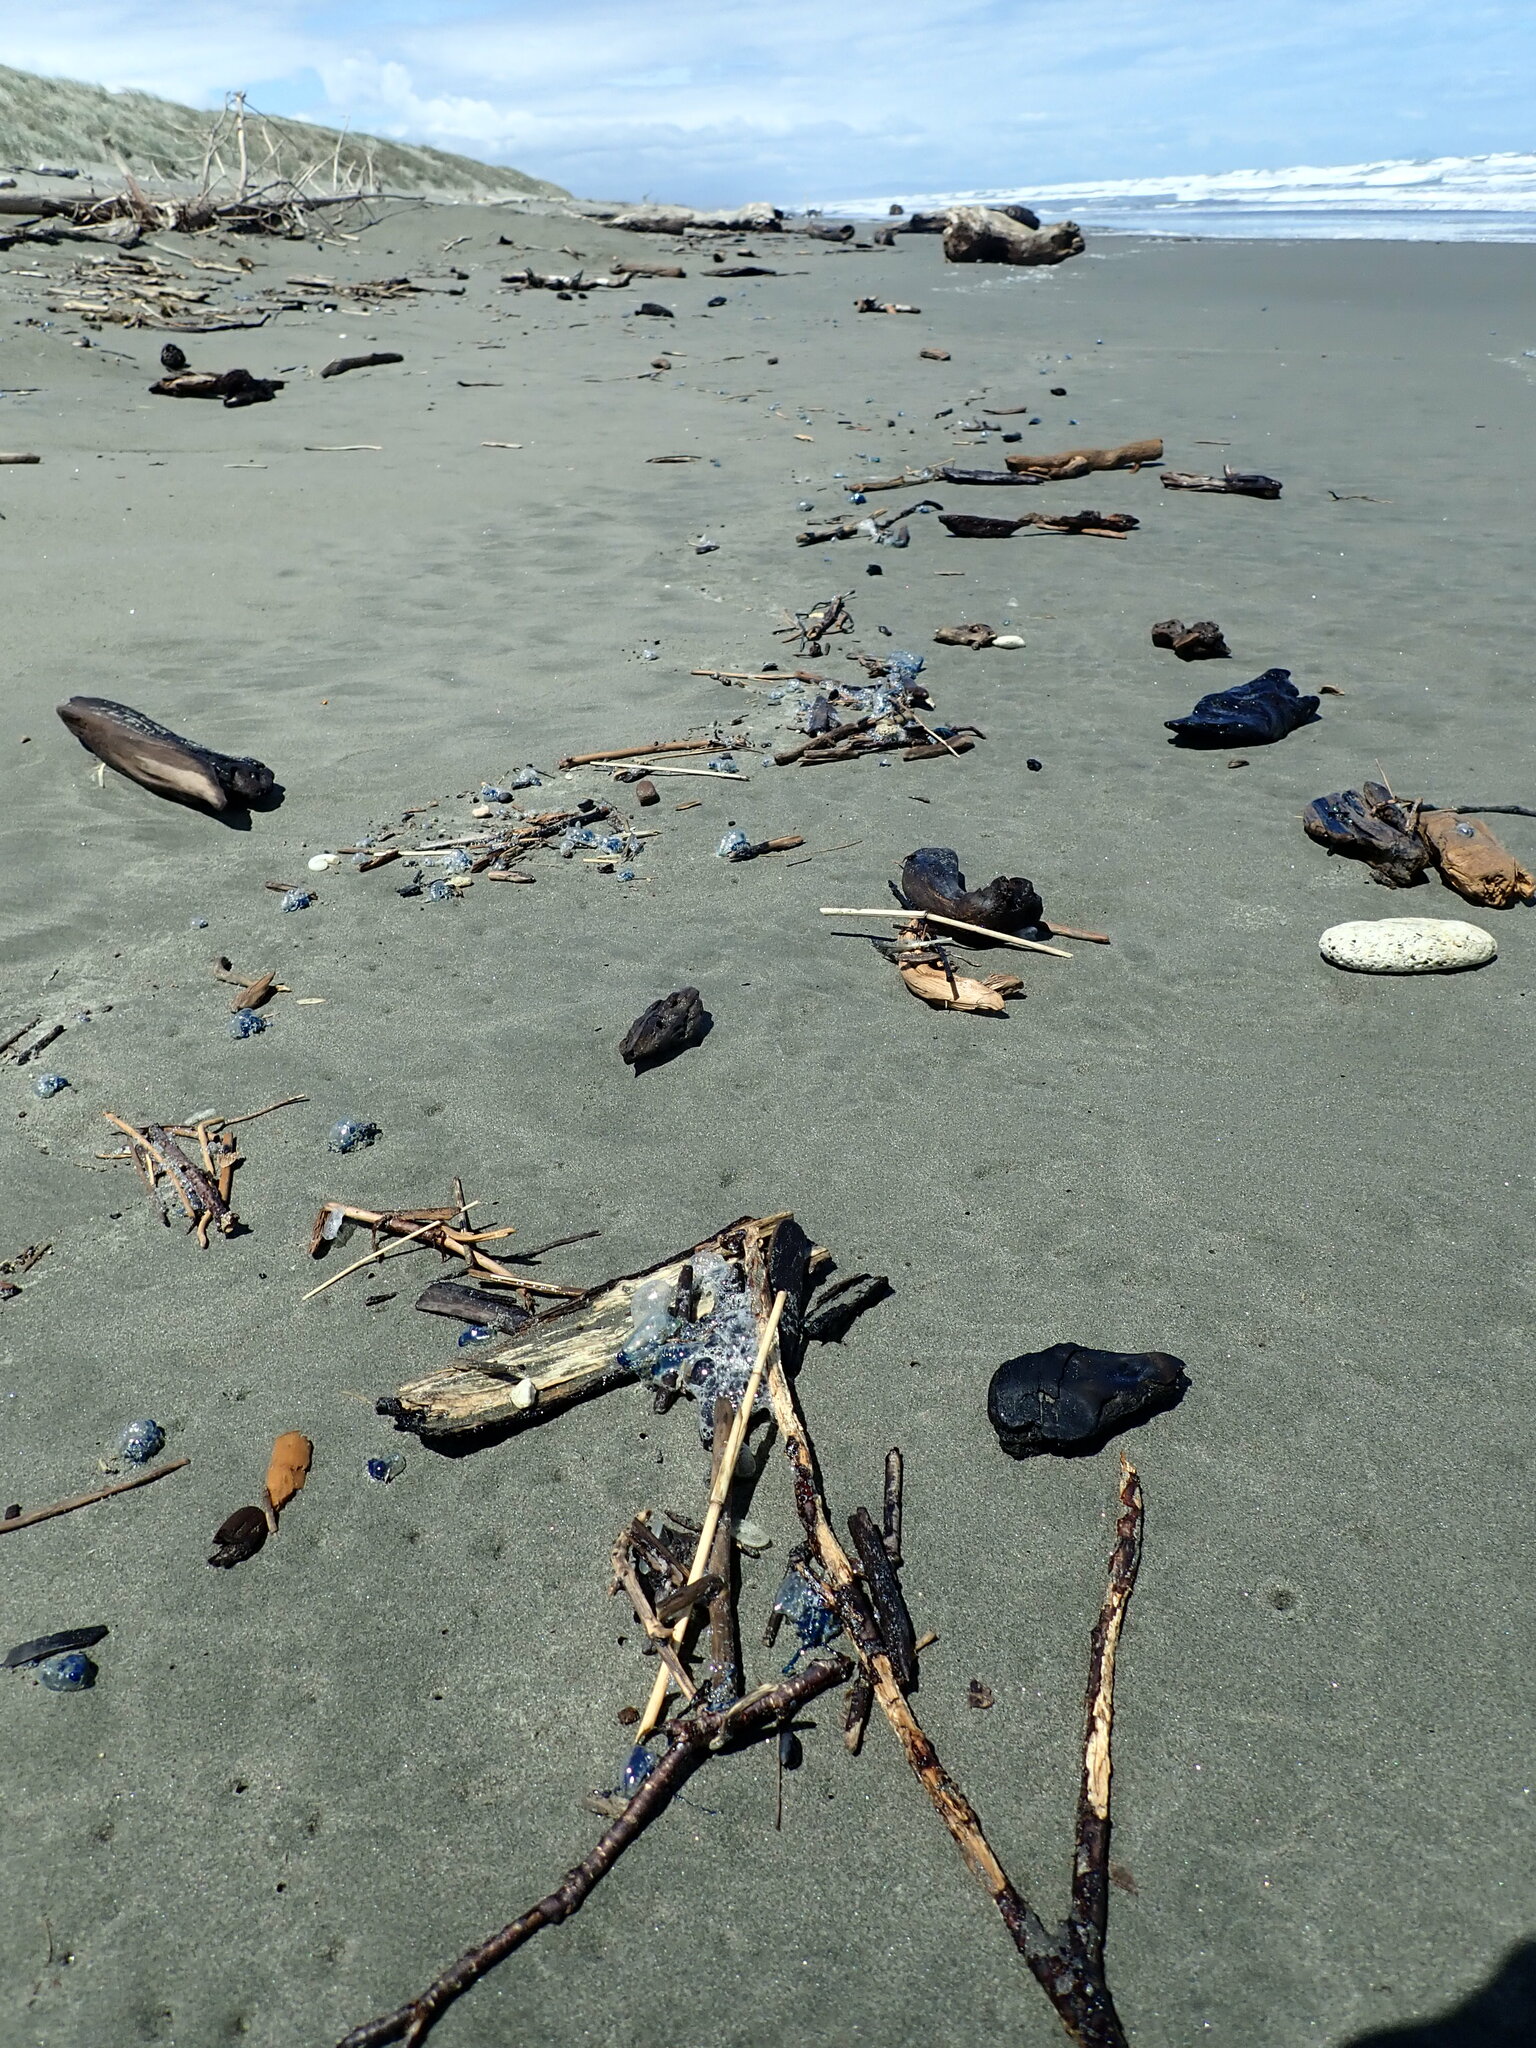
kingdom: Animalia
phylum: Cnidaria
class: Hydrozoa
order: Siphonophorae
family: Physaliidae
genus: Physalia
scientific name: Physalia physalis
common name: Portuguese man-of-war
